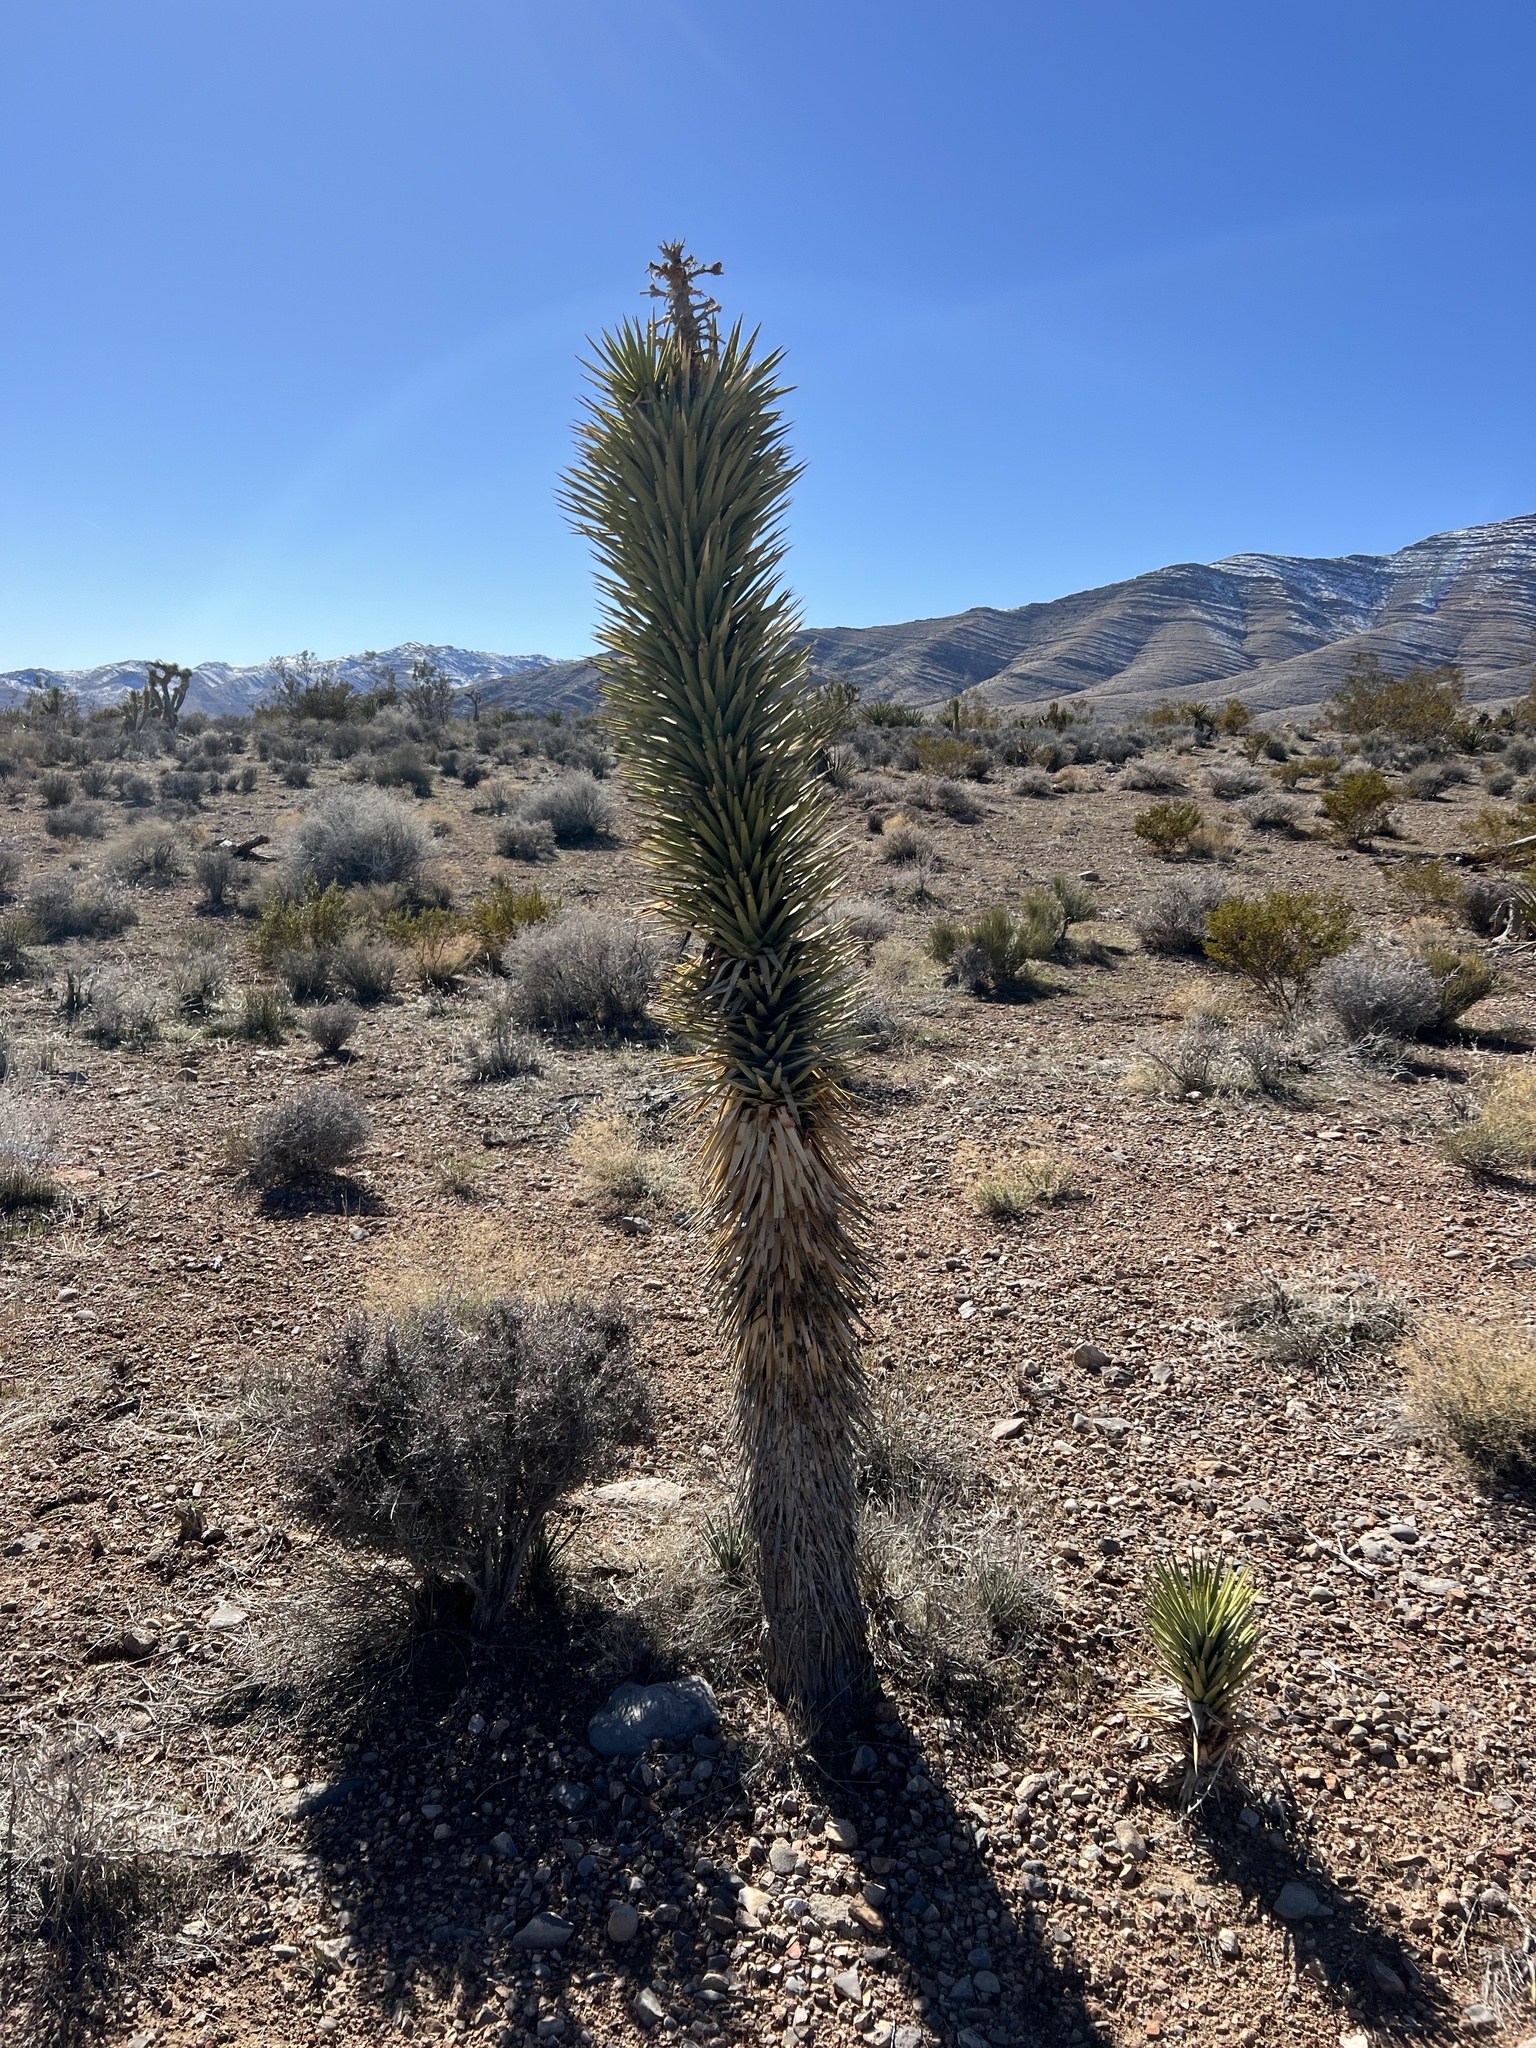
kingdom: Plantae
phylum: Tracheophyta
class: Liliopsida
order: Asparagales
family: Asparagaceae
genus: Yucca
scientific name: Yucca brevifolia
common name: Joshua tree
